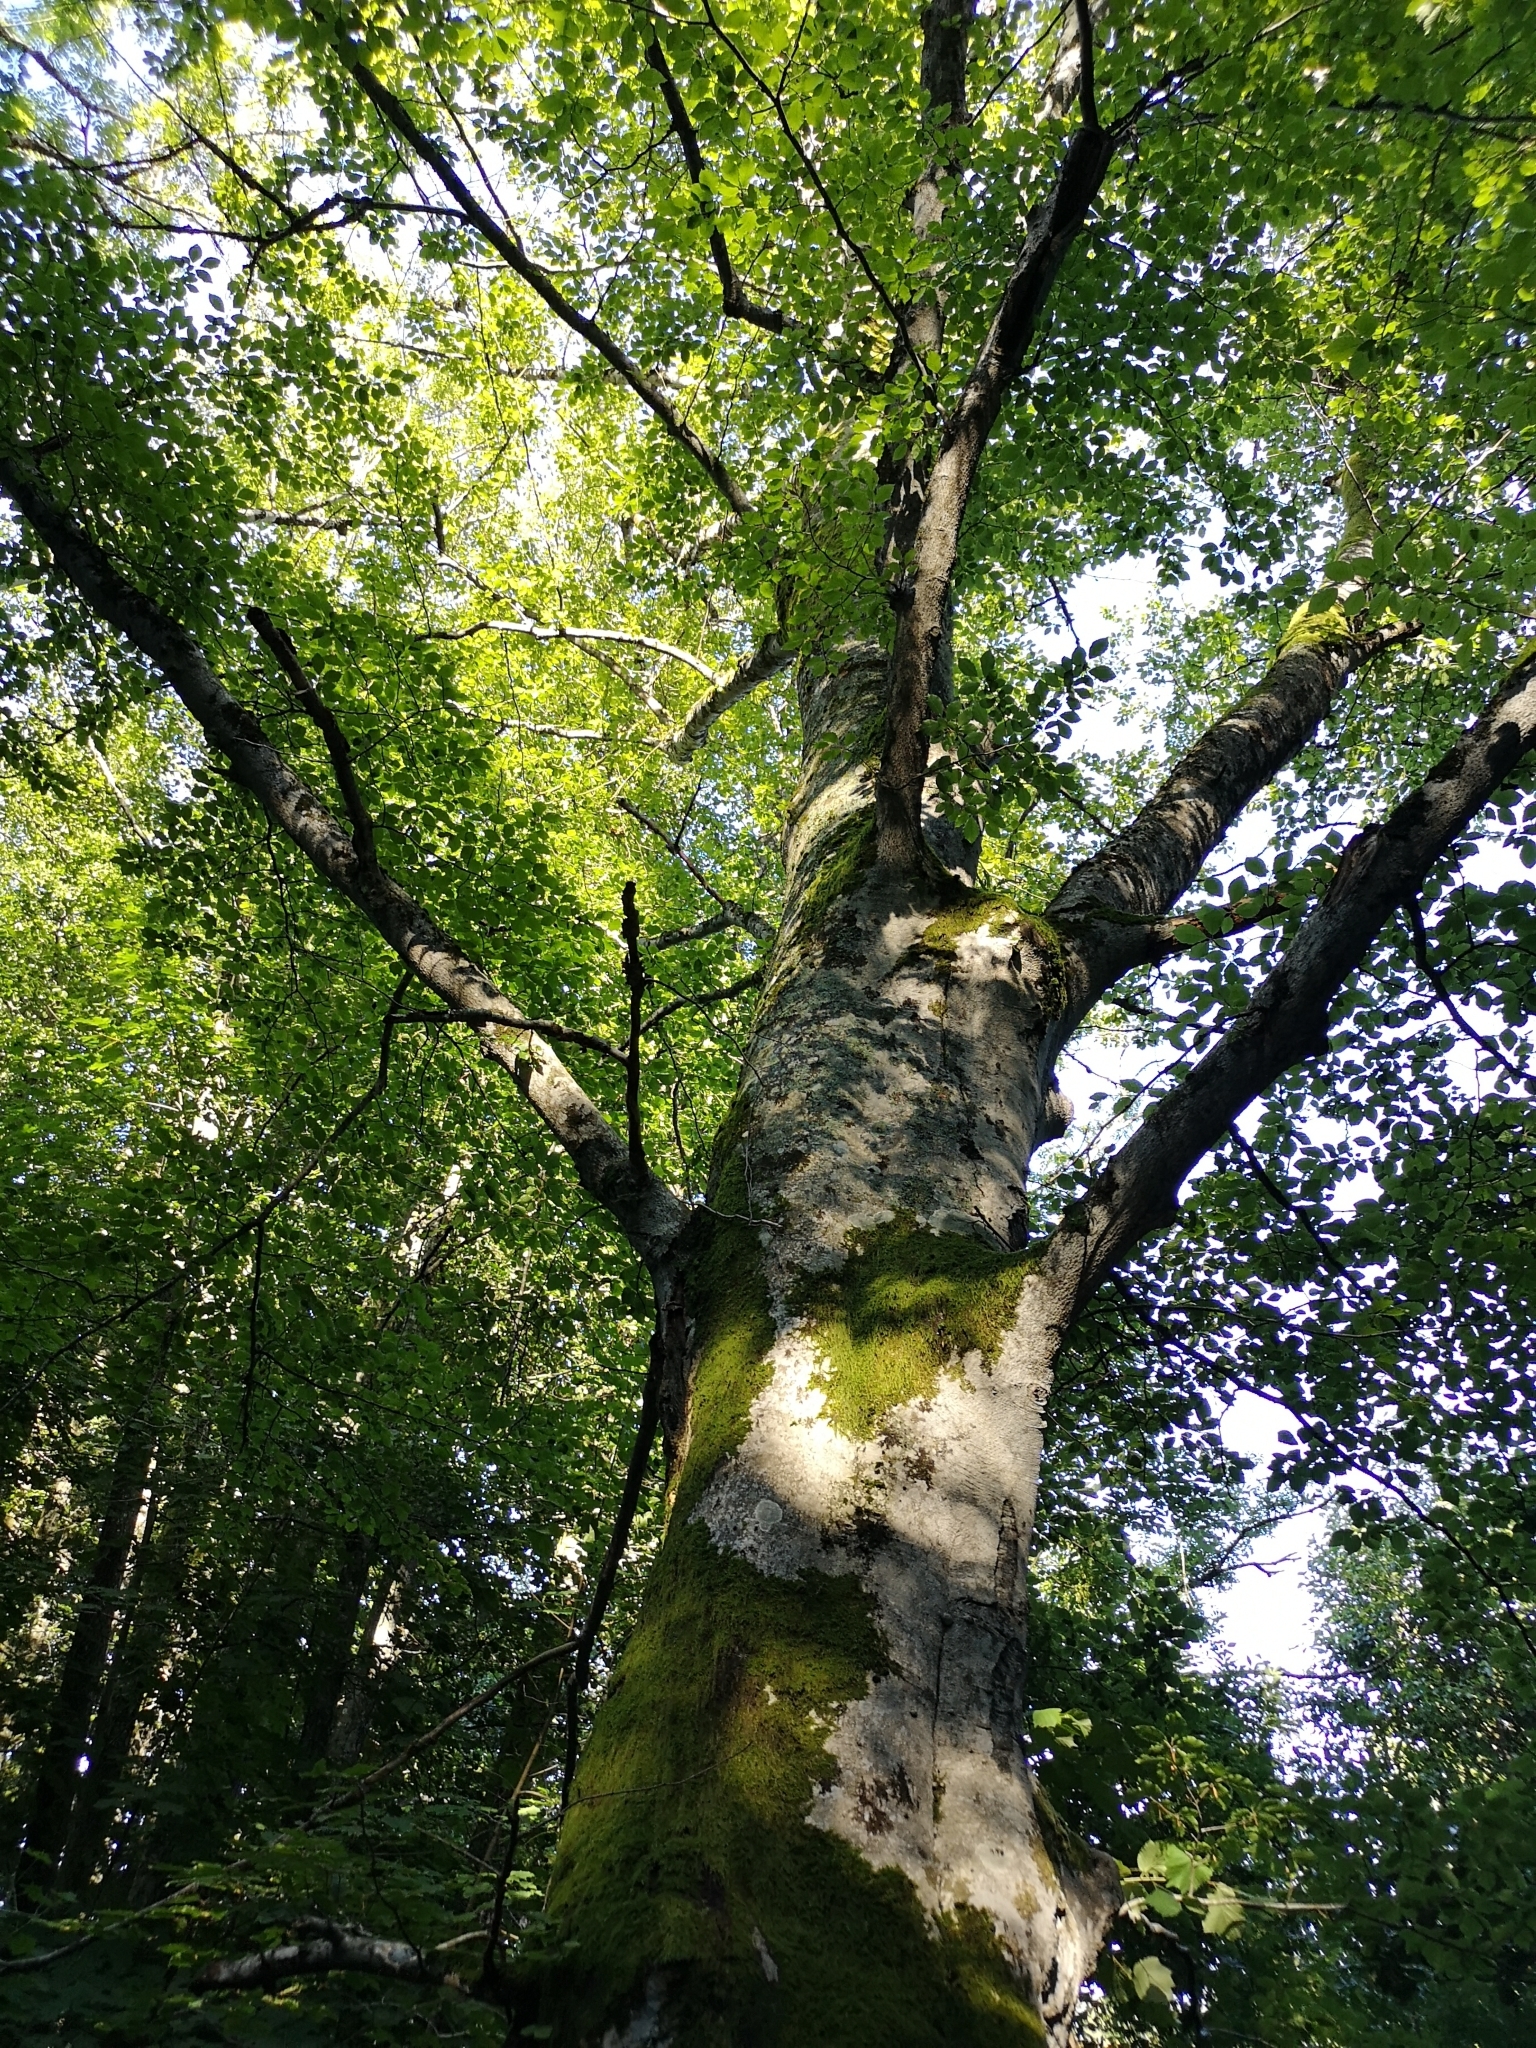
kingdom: Plantae
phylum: Tracheophyta
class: Magnoliopsida
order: Fagales
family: Fagaceae
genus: Fagus
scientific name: Fagus sylvatica
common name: Beech
